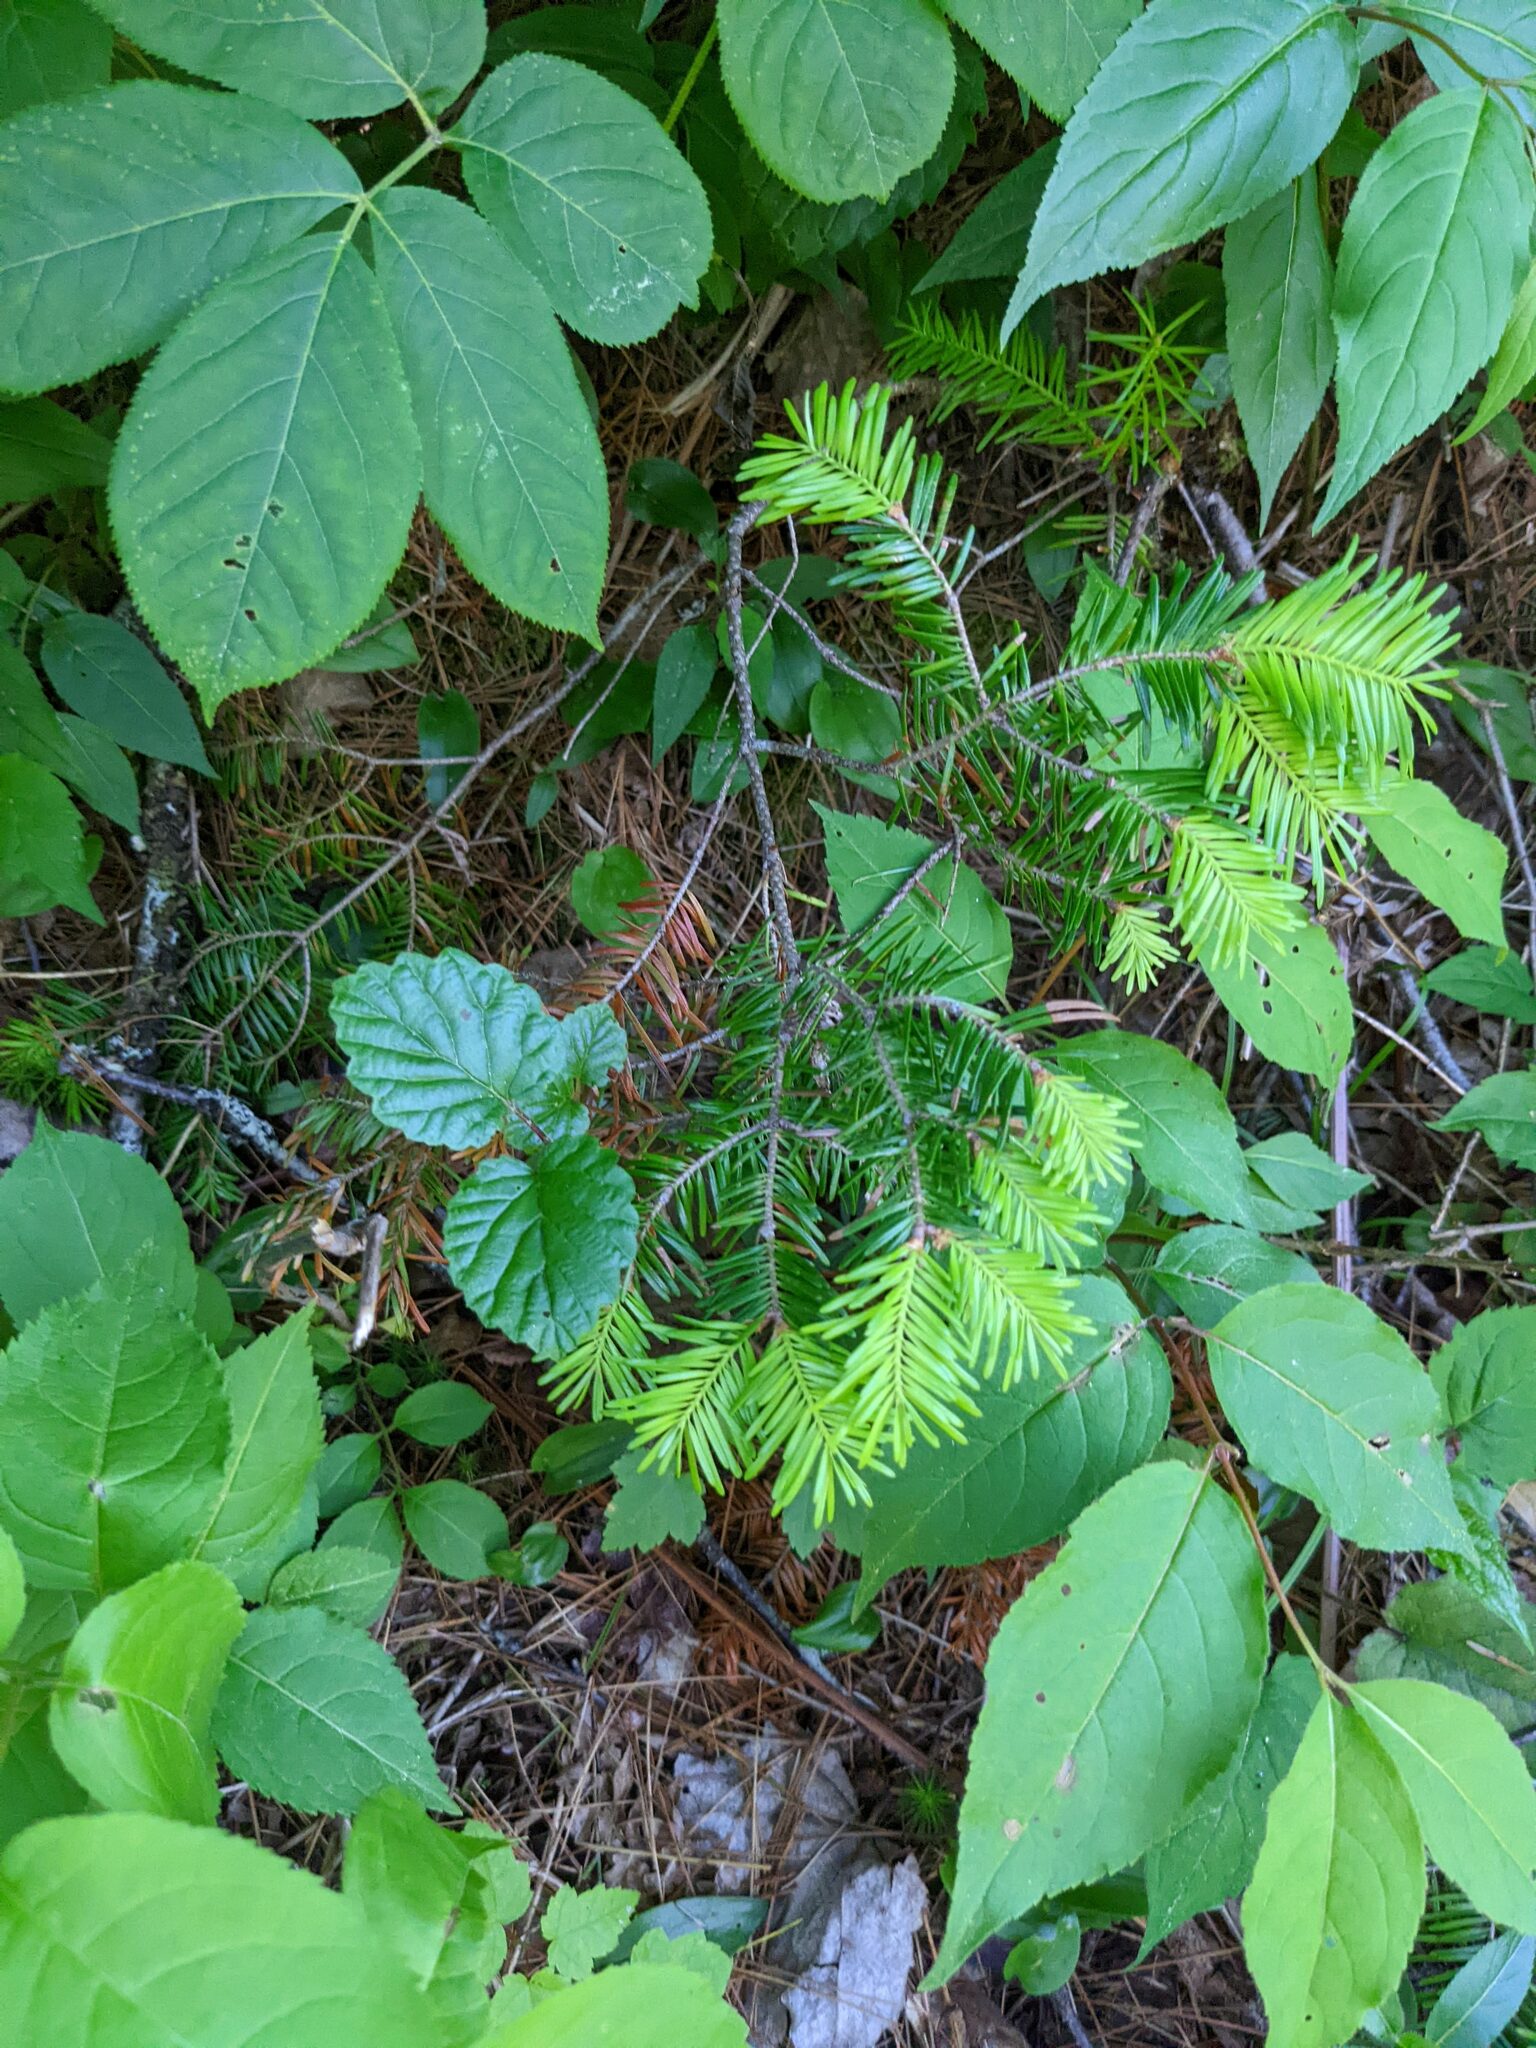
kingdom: Plantae
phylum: Tracheophyta
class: Pinopsida
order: Pinales
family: Pinaceae
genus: Abies
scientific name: Abies balsamea
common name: Balsam fir
